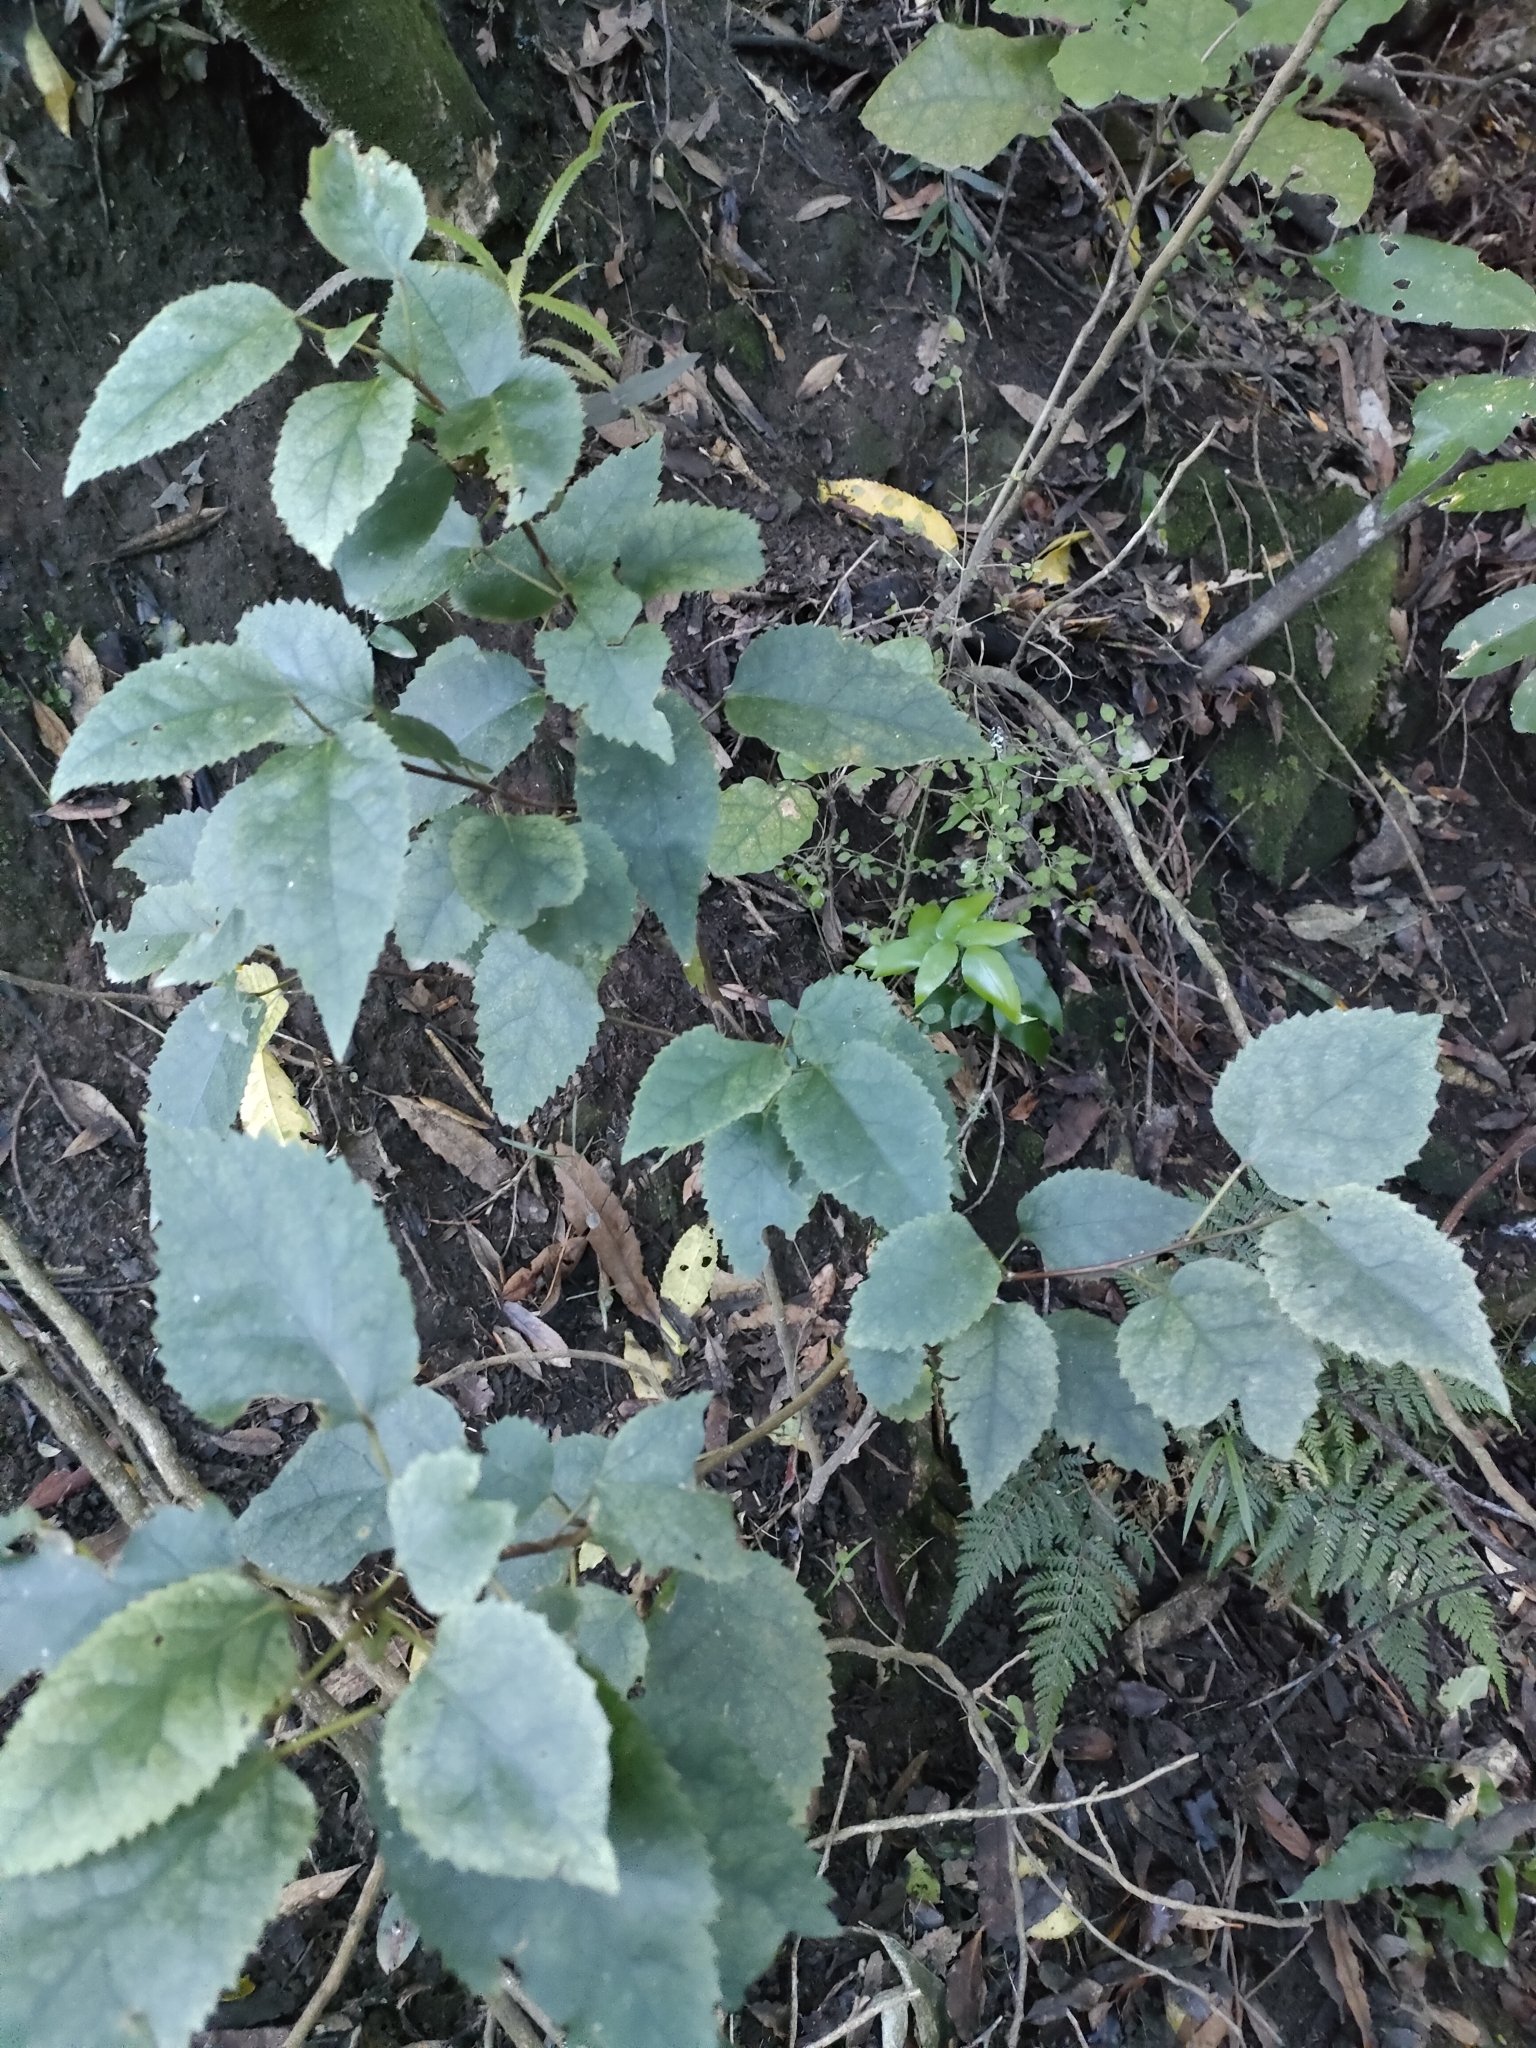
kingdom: Plantae
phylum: Tracheophyta
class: Magnoliopsida
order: Malvales
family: Malvaceae
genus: Hoheria
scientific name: Hoheria populnea
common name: Lacebark
